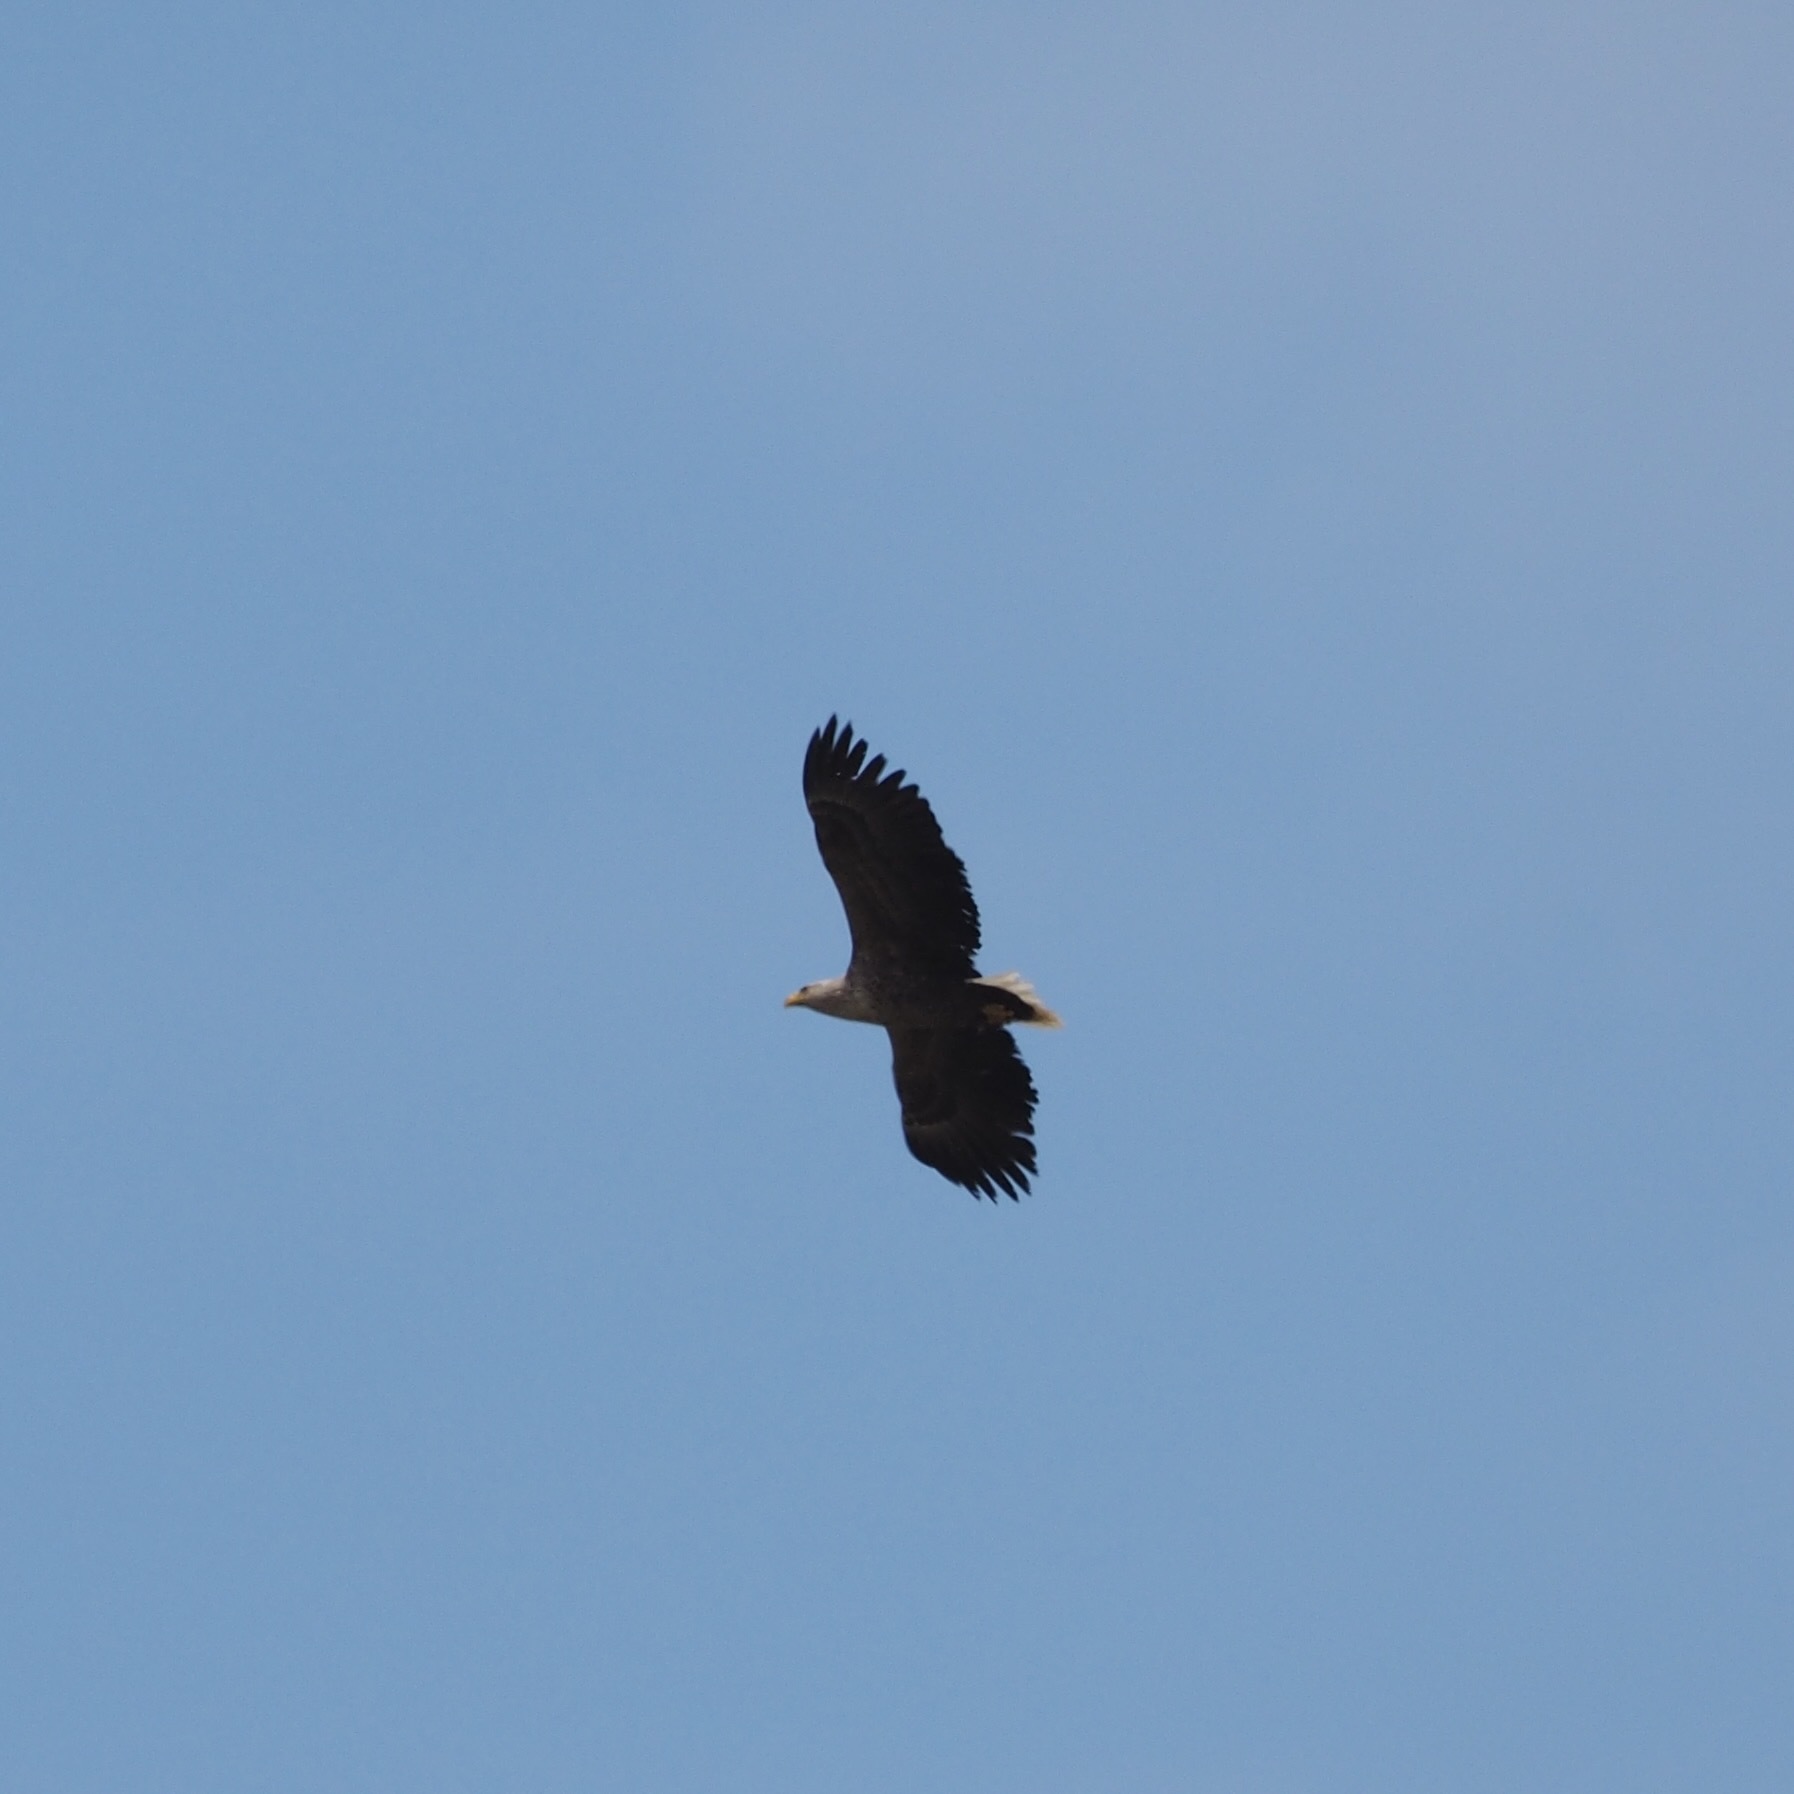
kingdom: Animalia
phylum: Chordata
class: Aves
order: Accipitriformes
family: Accipitridae
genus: Haliaeetus
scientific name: Haliaeetus albicilla
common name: White-tailed eagle
